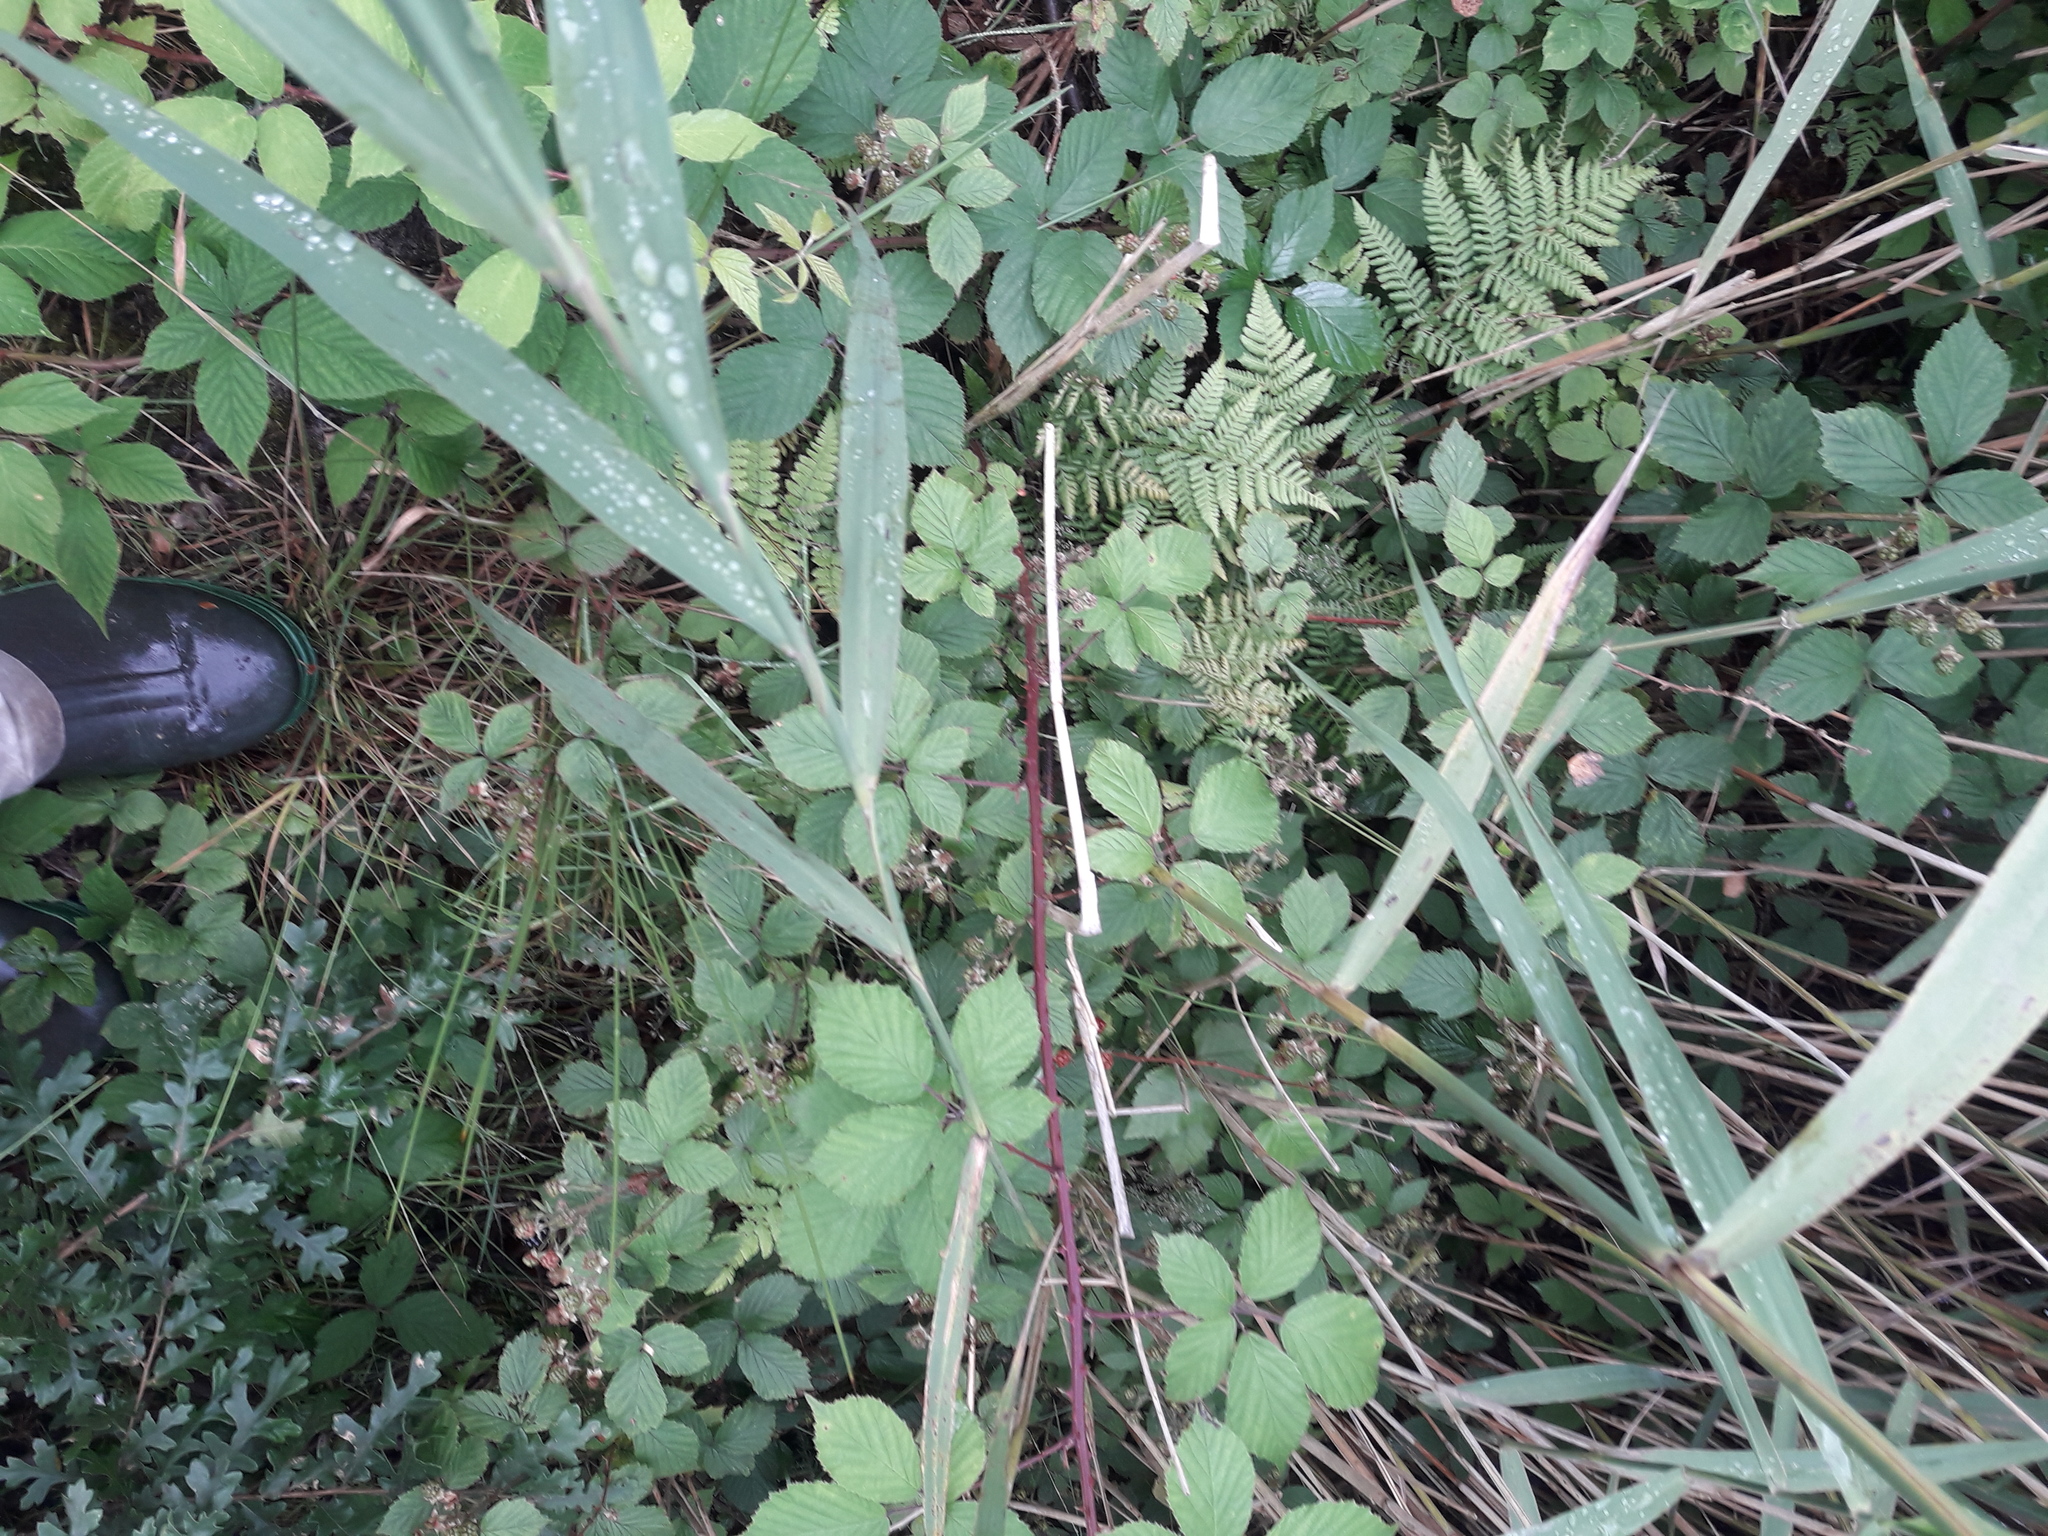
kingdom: Plantae
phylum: Tracheophyta
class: Liliopsida
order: Poales
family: Poaceae
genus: Phragmites
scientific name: Phragmites australis
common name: Common reed
